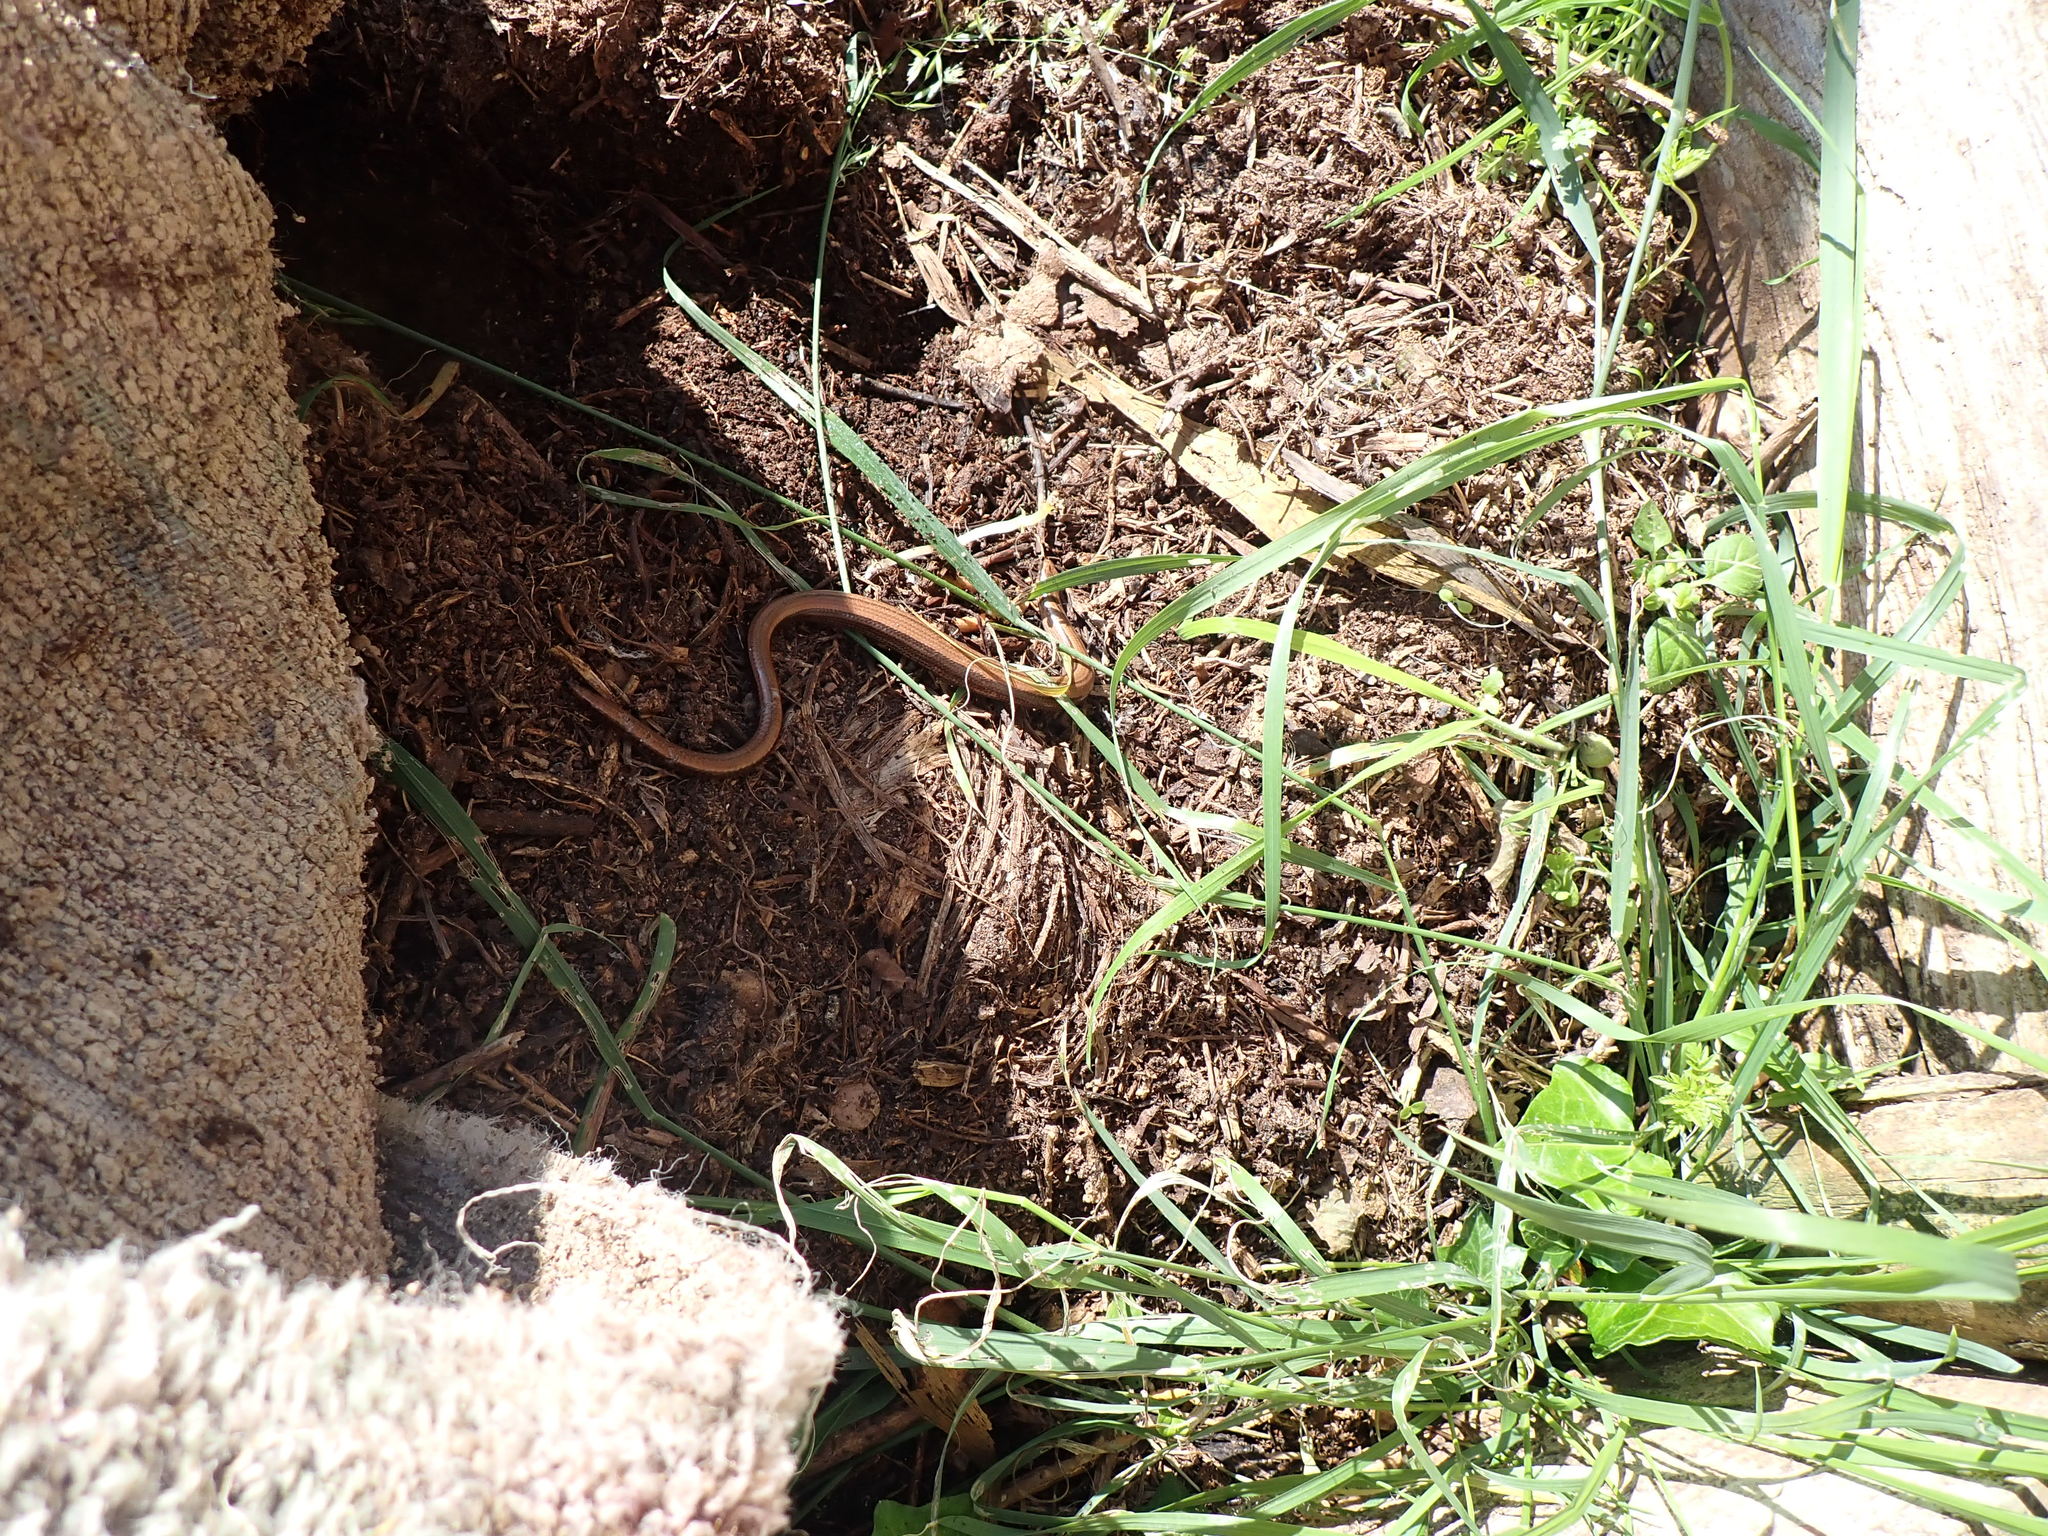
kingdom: Animalia
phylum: Chordata
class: Squamata
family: Anguidae
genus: Anguis
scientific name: Anguis fragilis
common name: Slow worm
